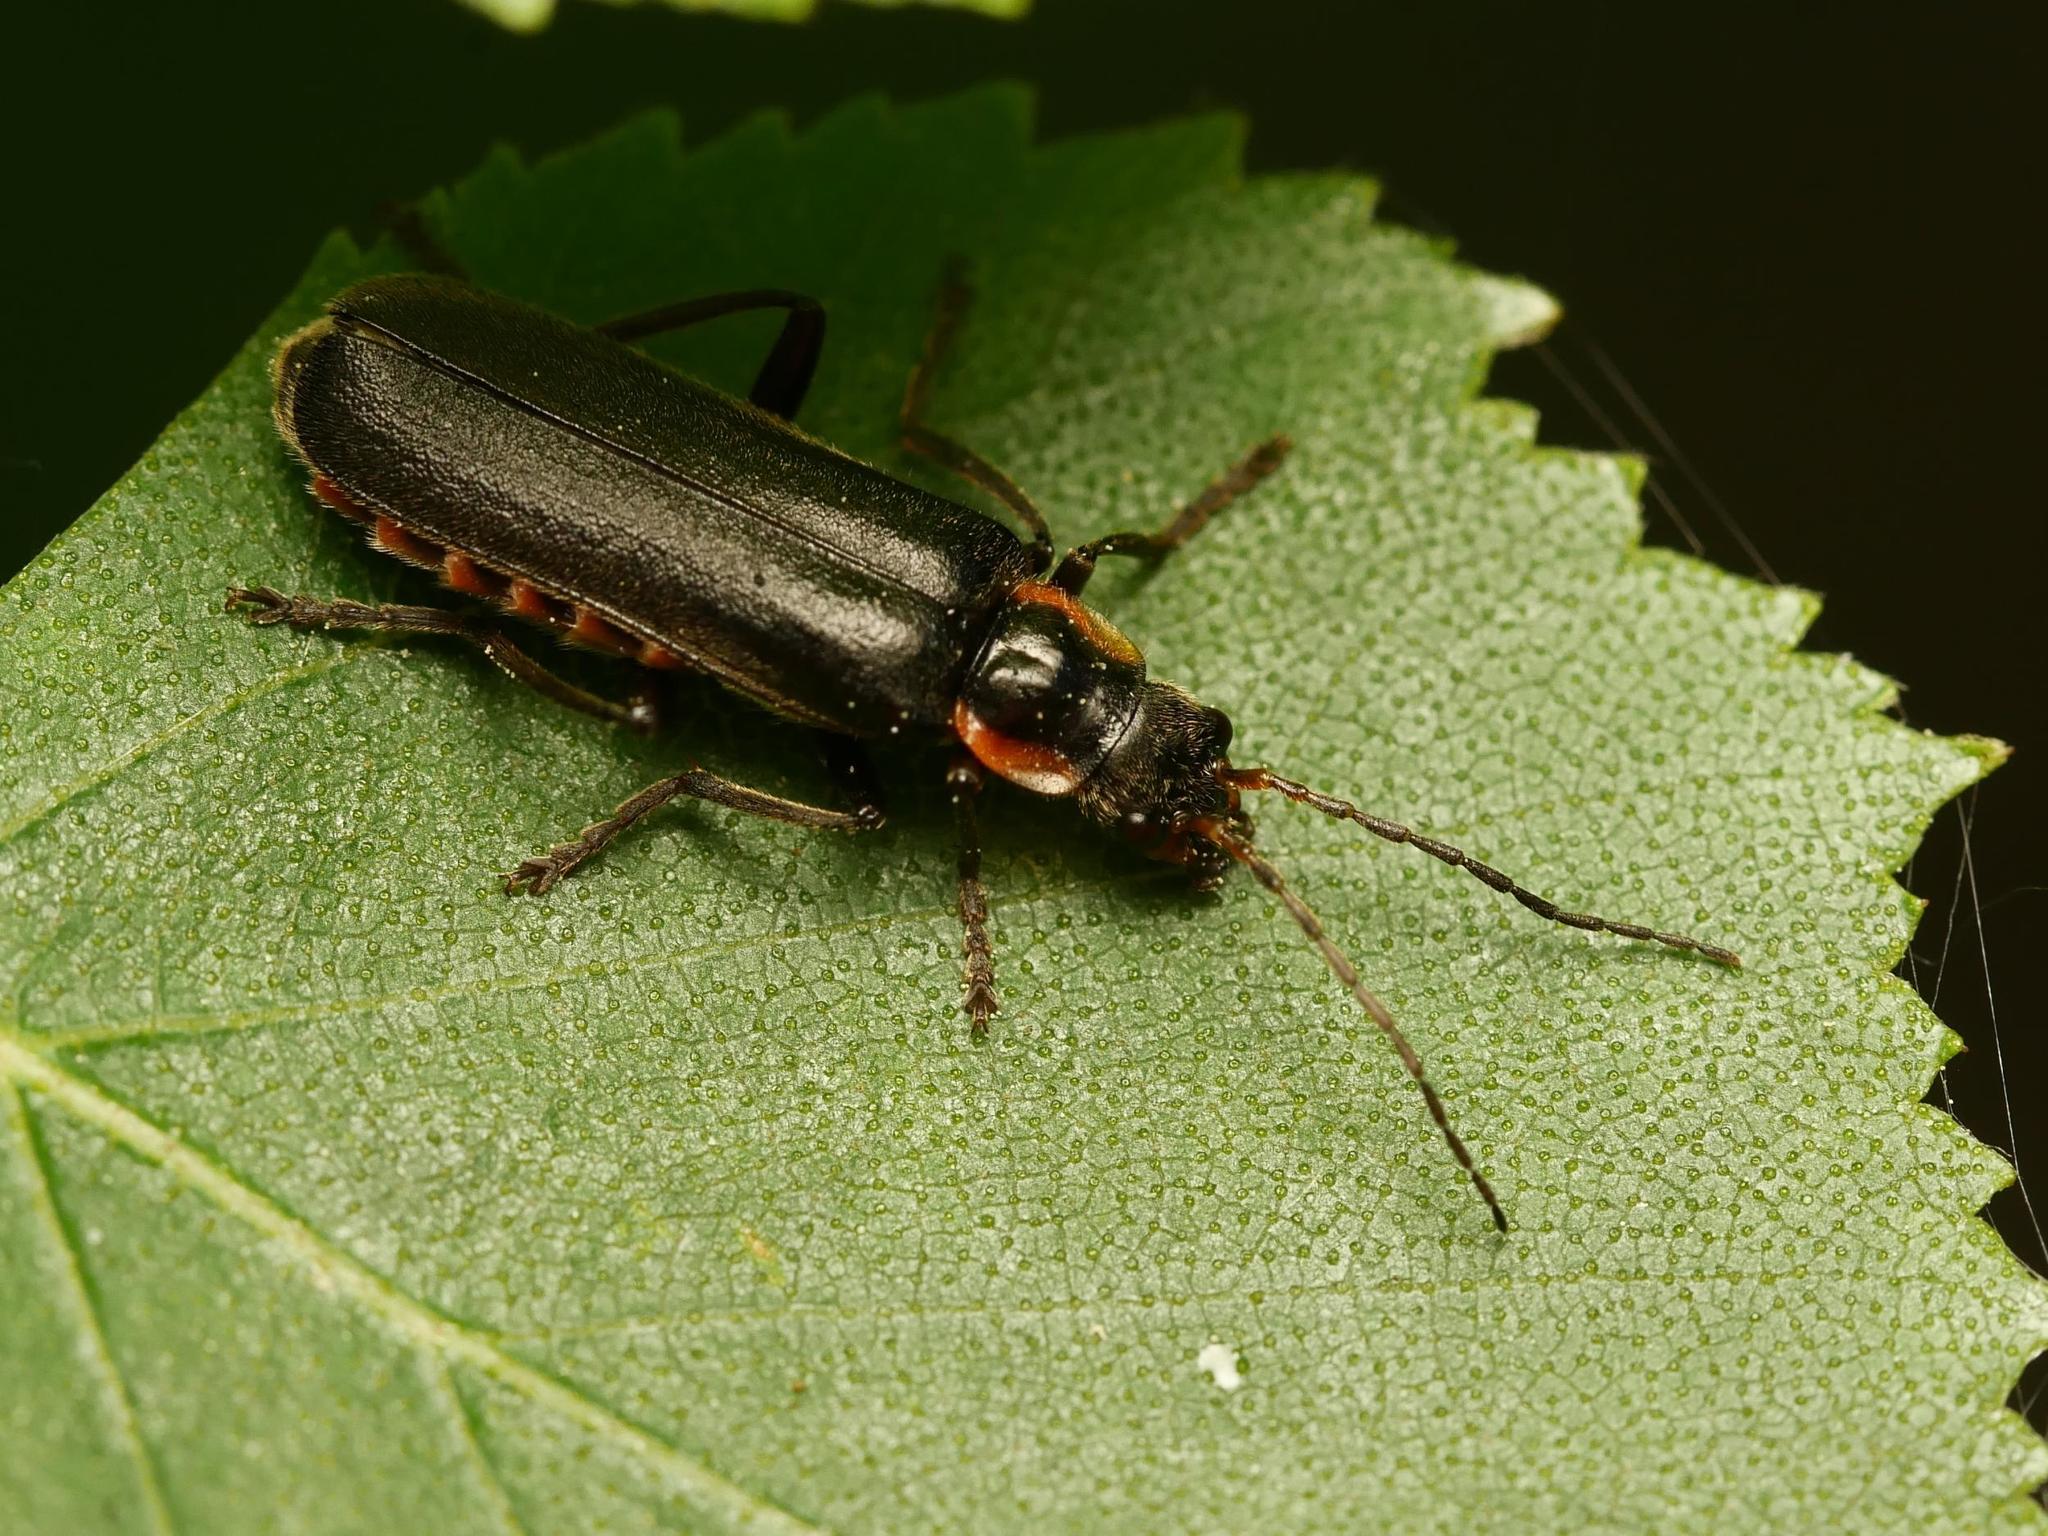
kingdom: Animalia
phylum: Arthropoda
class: Insecta
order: Coleoptera
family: Cantharidae
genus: Cantharis
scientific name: Cantharis obscura
